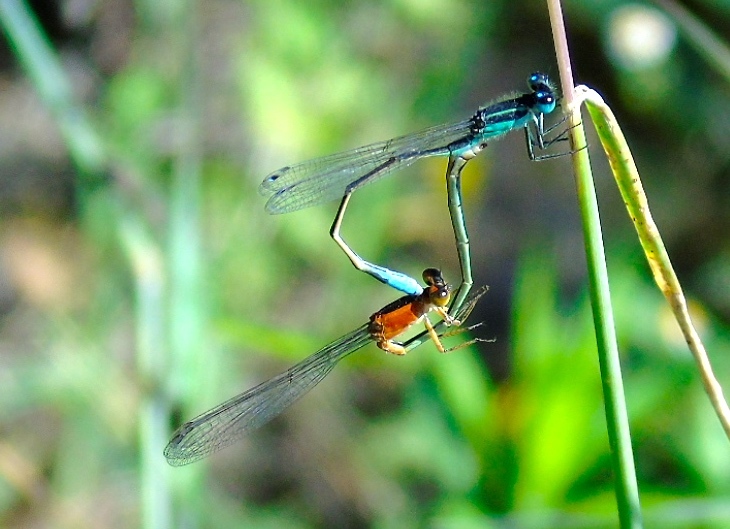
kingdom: Animalia
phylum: Arthropoda
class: Insecta
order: Odonata
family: Coenagrionidae
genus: Ischnura
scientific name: Ischnura
